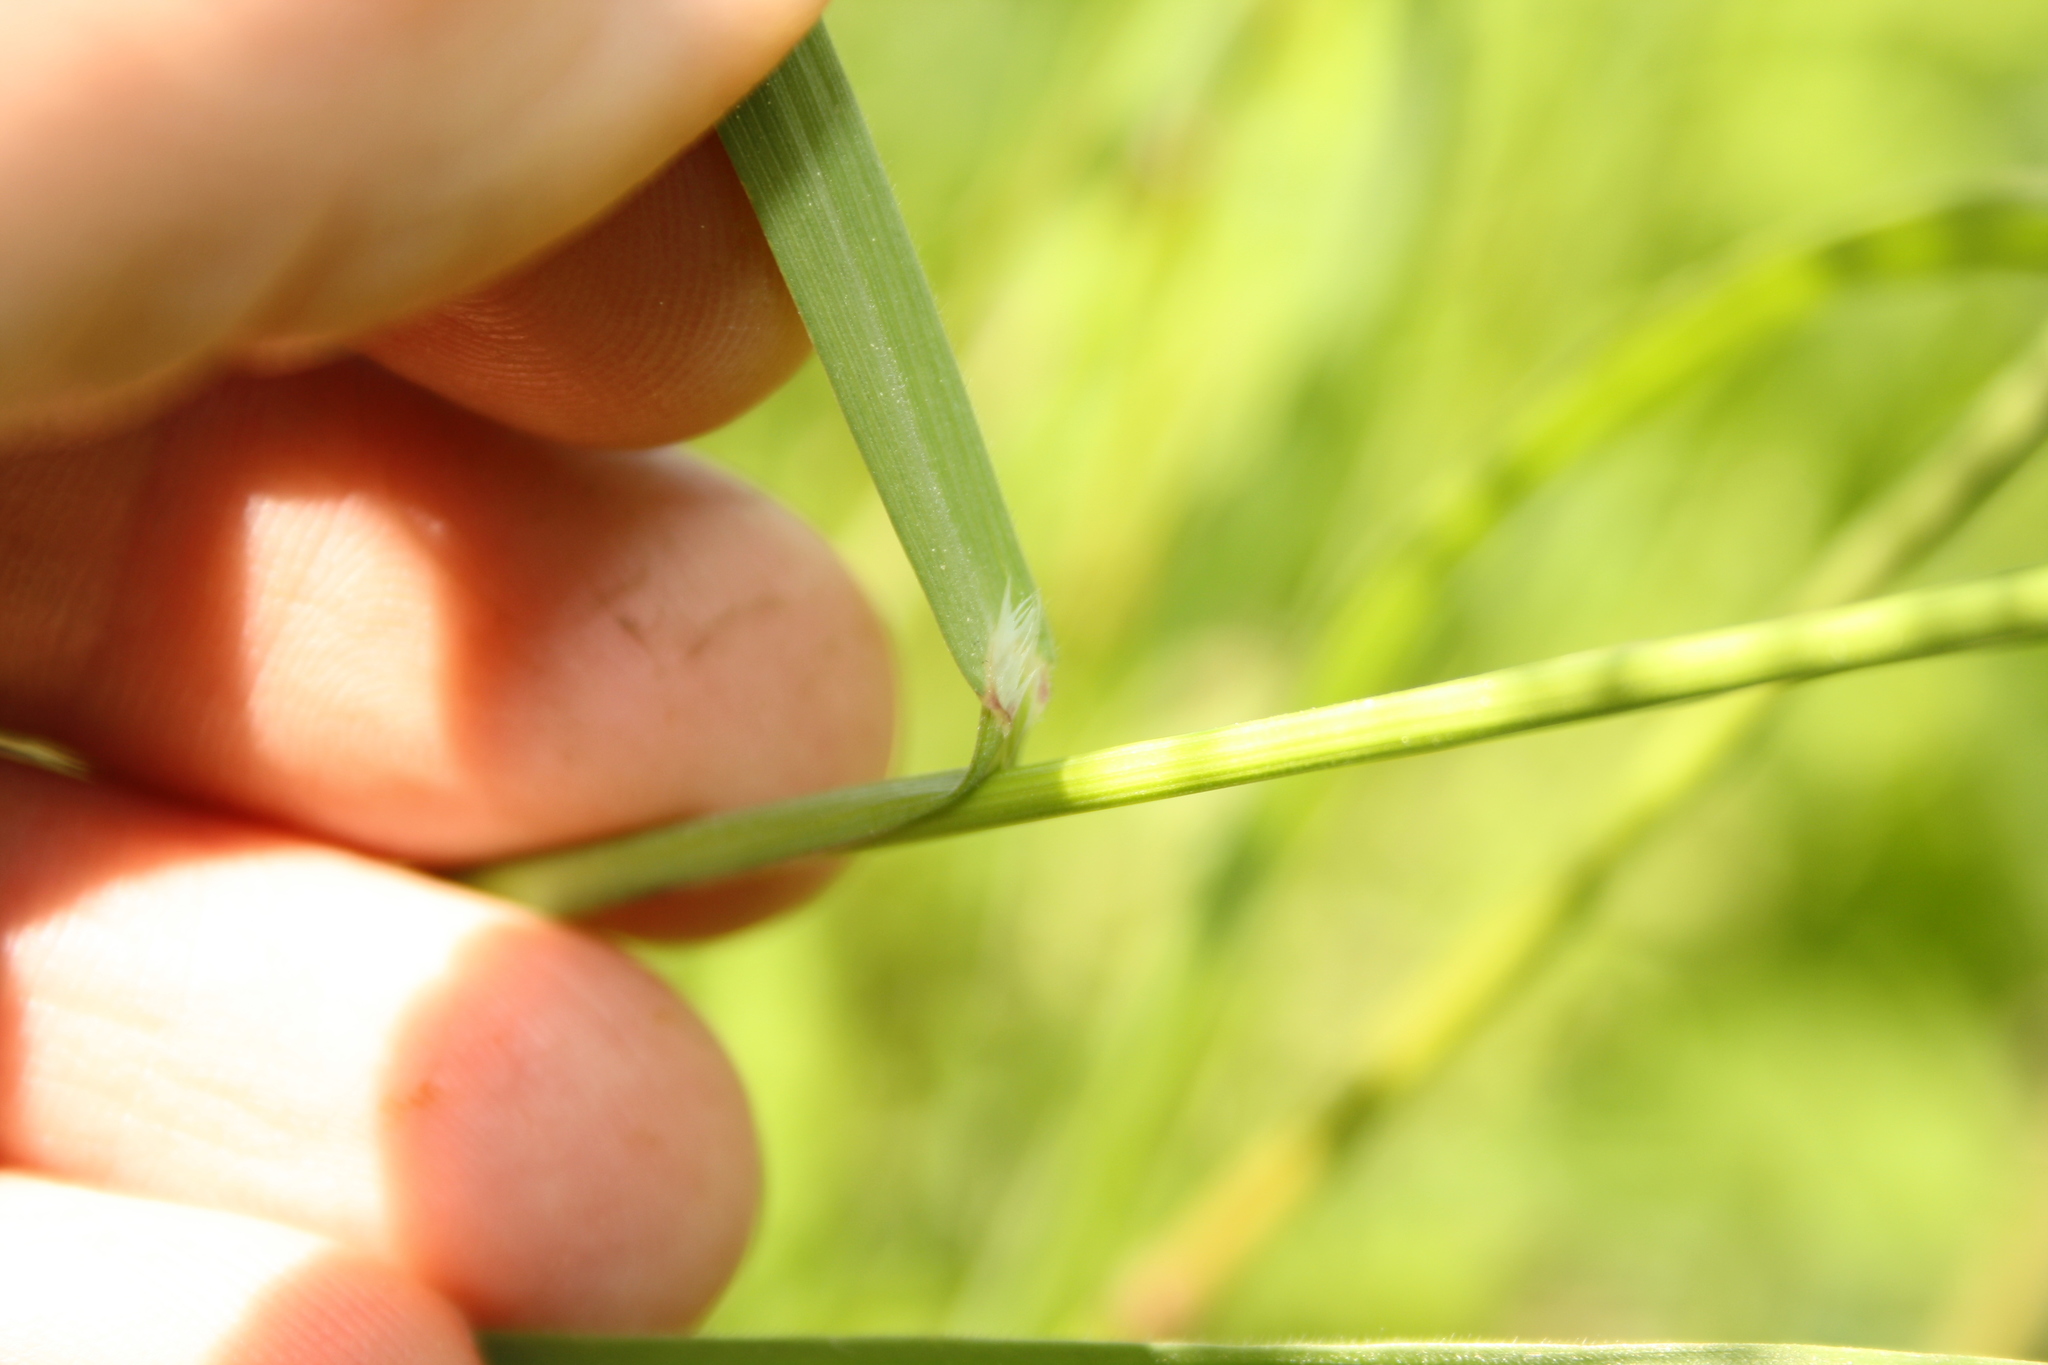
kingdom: Plantae
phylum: Tracheophyta
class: Liliopsida
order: Poales
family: Poaceae
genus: Bromus
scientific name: Bromus sterilis
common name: Poverty brome
